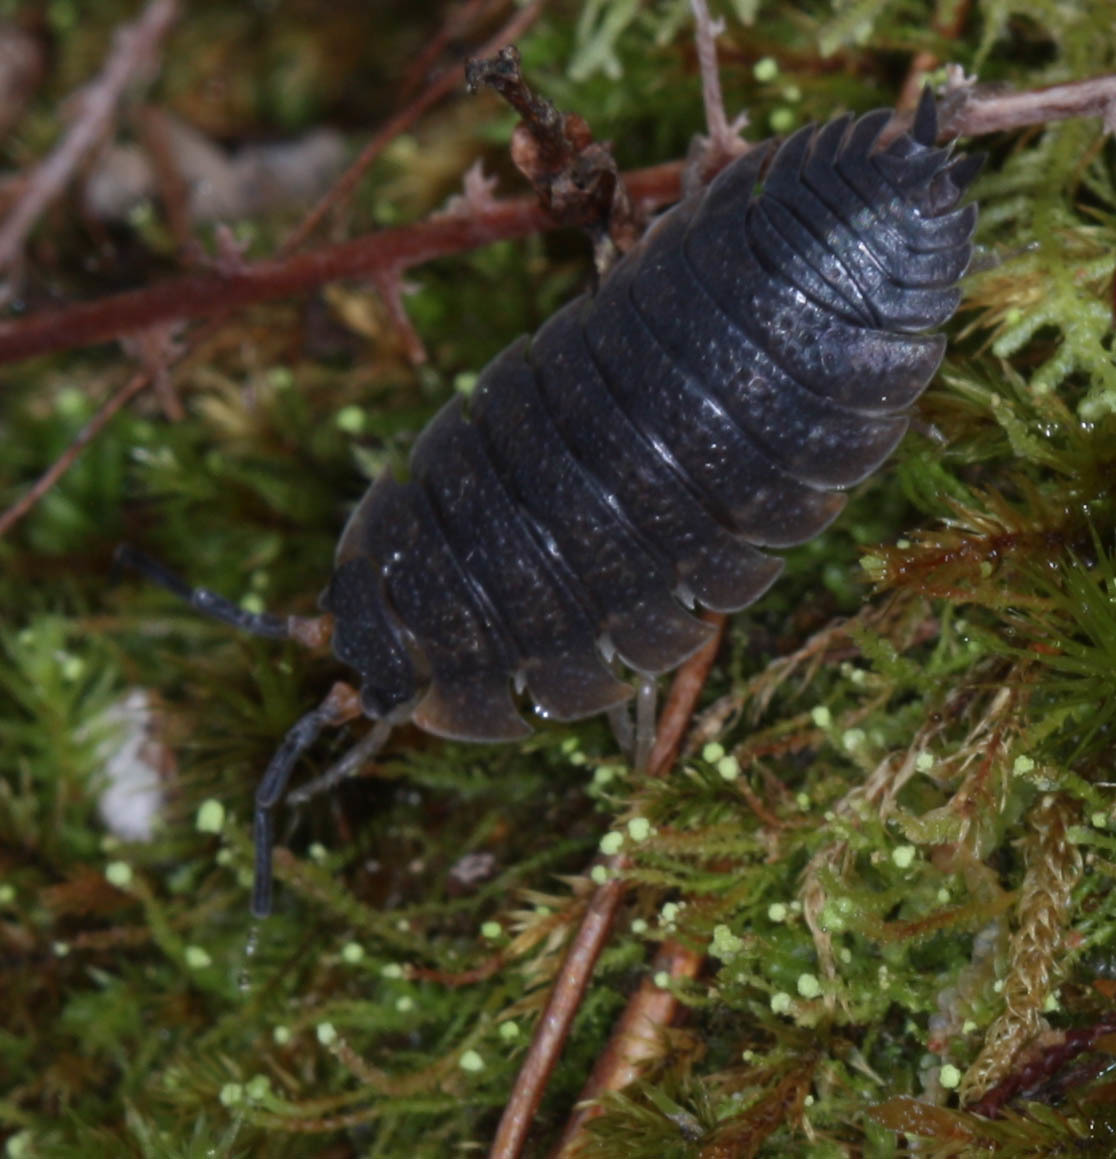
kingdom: Animalia
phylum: Arthropoda
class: Malacostraca
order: Isopoda
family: Porcellionidae
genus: Porcellio
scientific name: Porcellio scaber
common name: Common rough woodlouse
